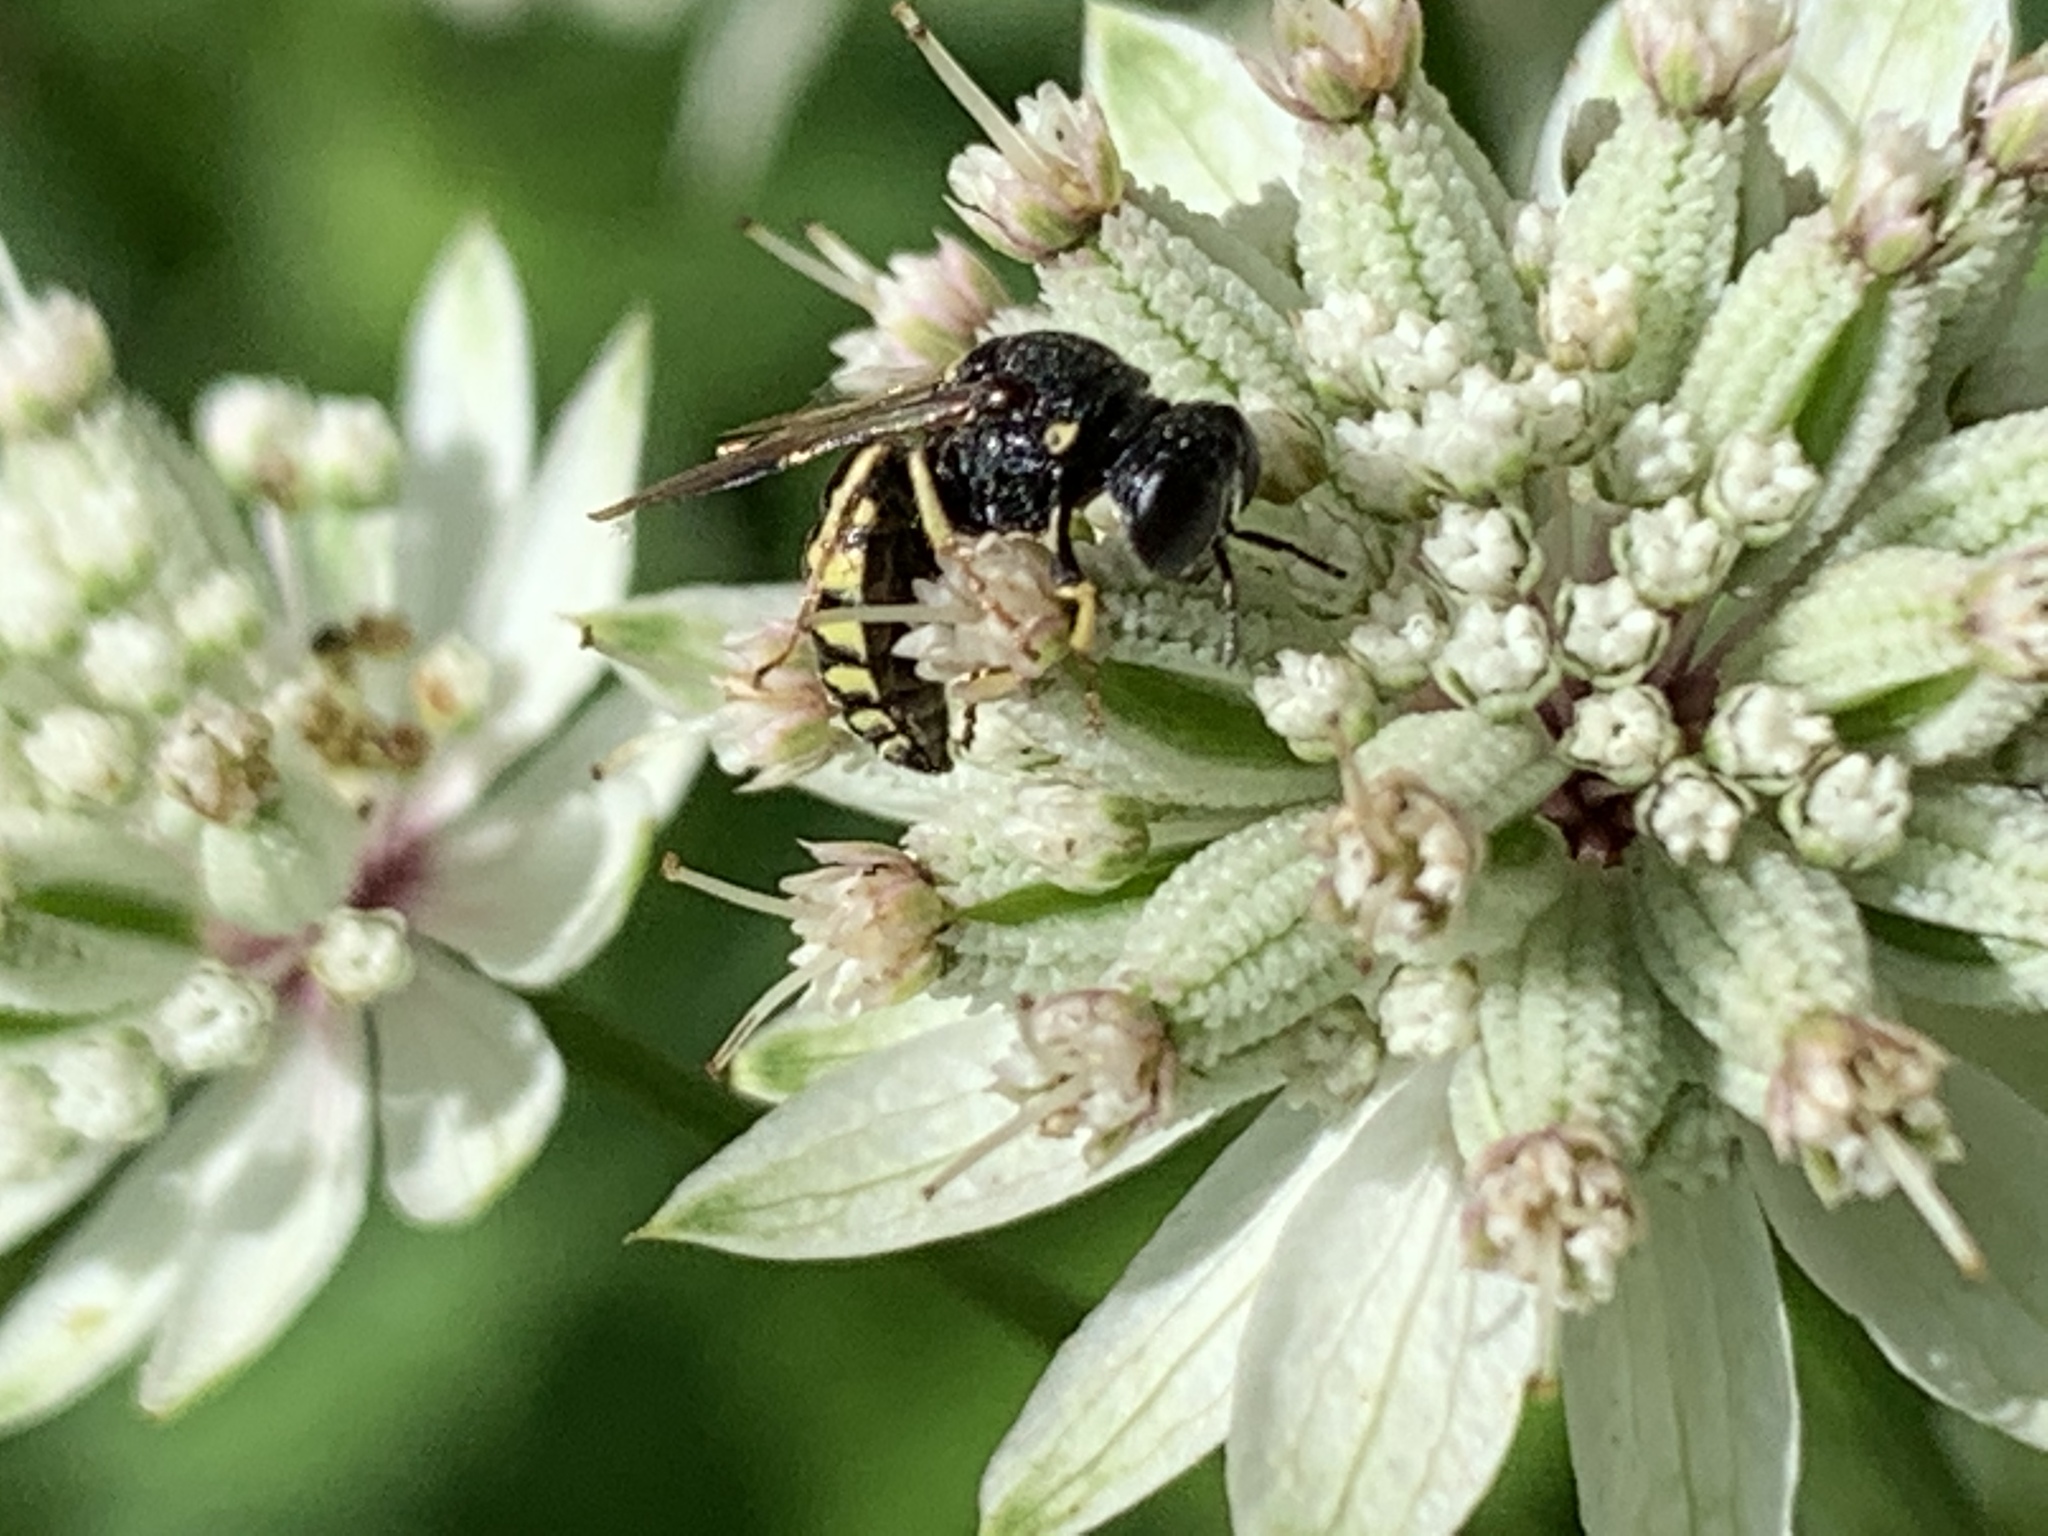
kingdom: Animalia
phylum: Arthropoda
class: Insecta
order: Hymenoptera
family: Crabronidae
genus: Anacrabro
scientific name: Anacrabro ocellatus
